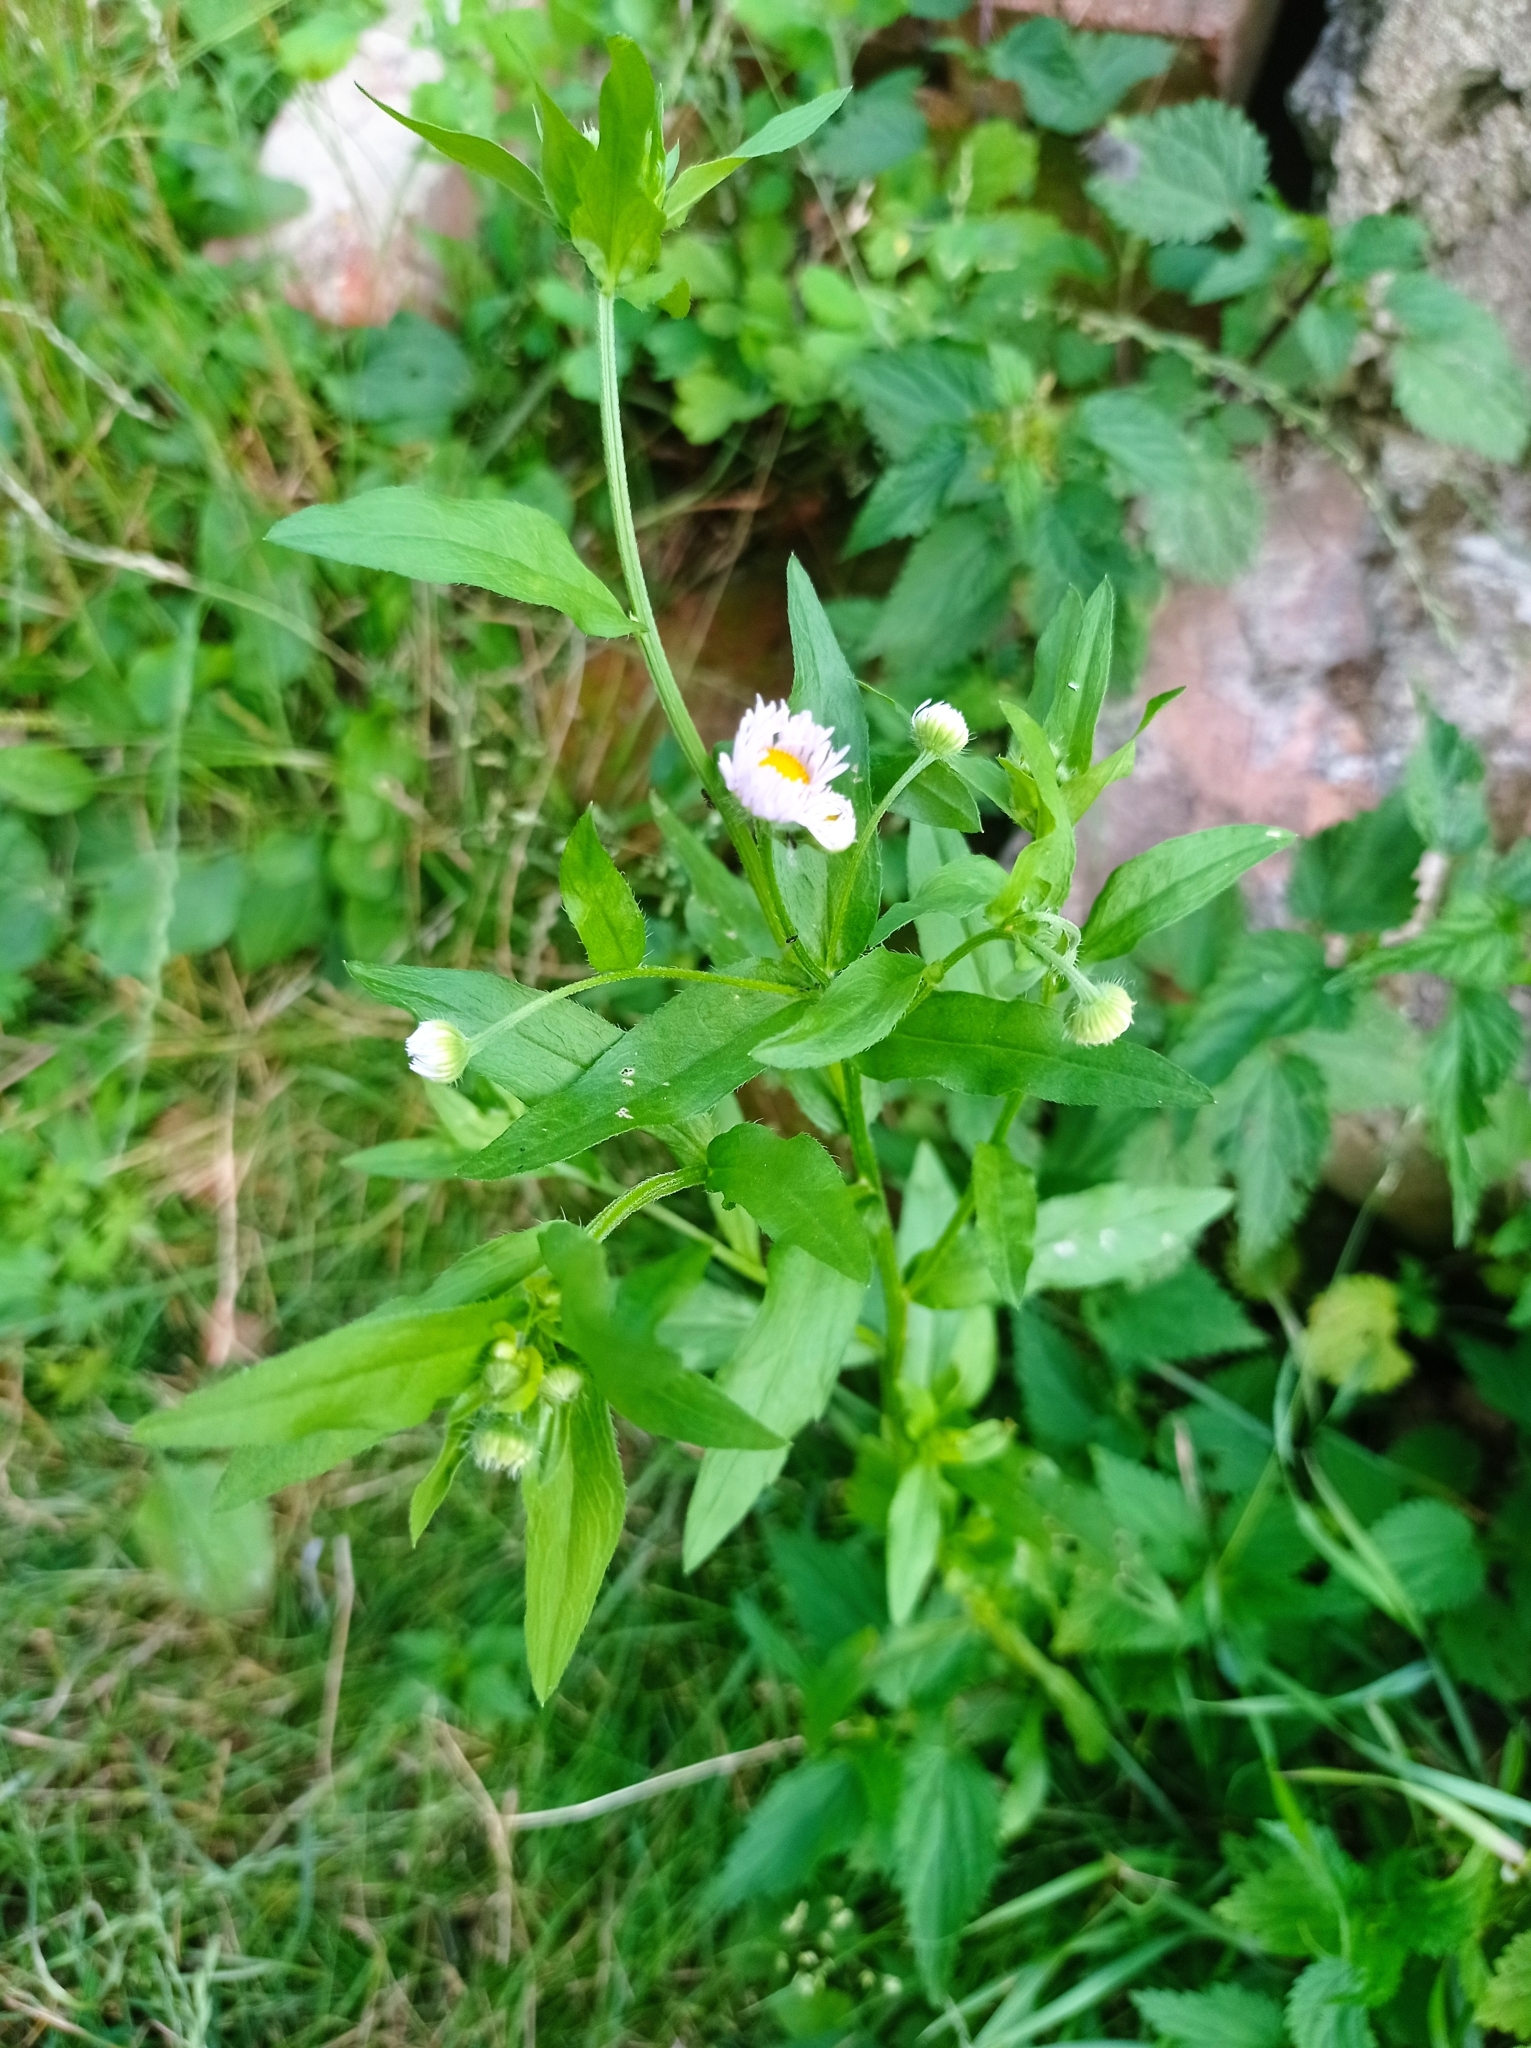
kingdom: Plantae
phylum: Tracheophyta
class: Magnoliopsida
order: Asterales
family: Asteraceae
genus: Erigeron
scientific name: Erigeron annuus
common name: Tall fleabane
